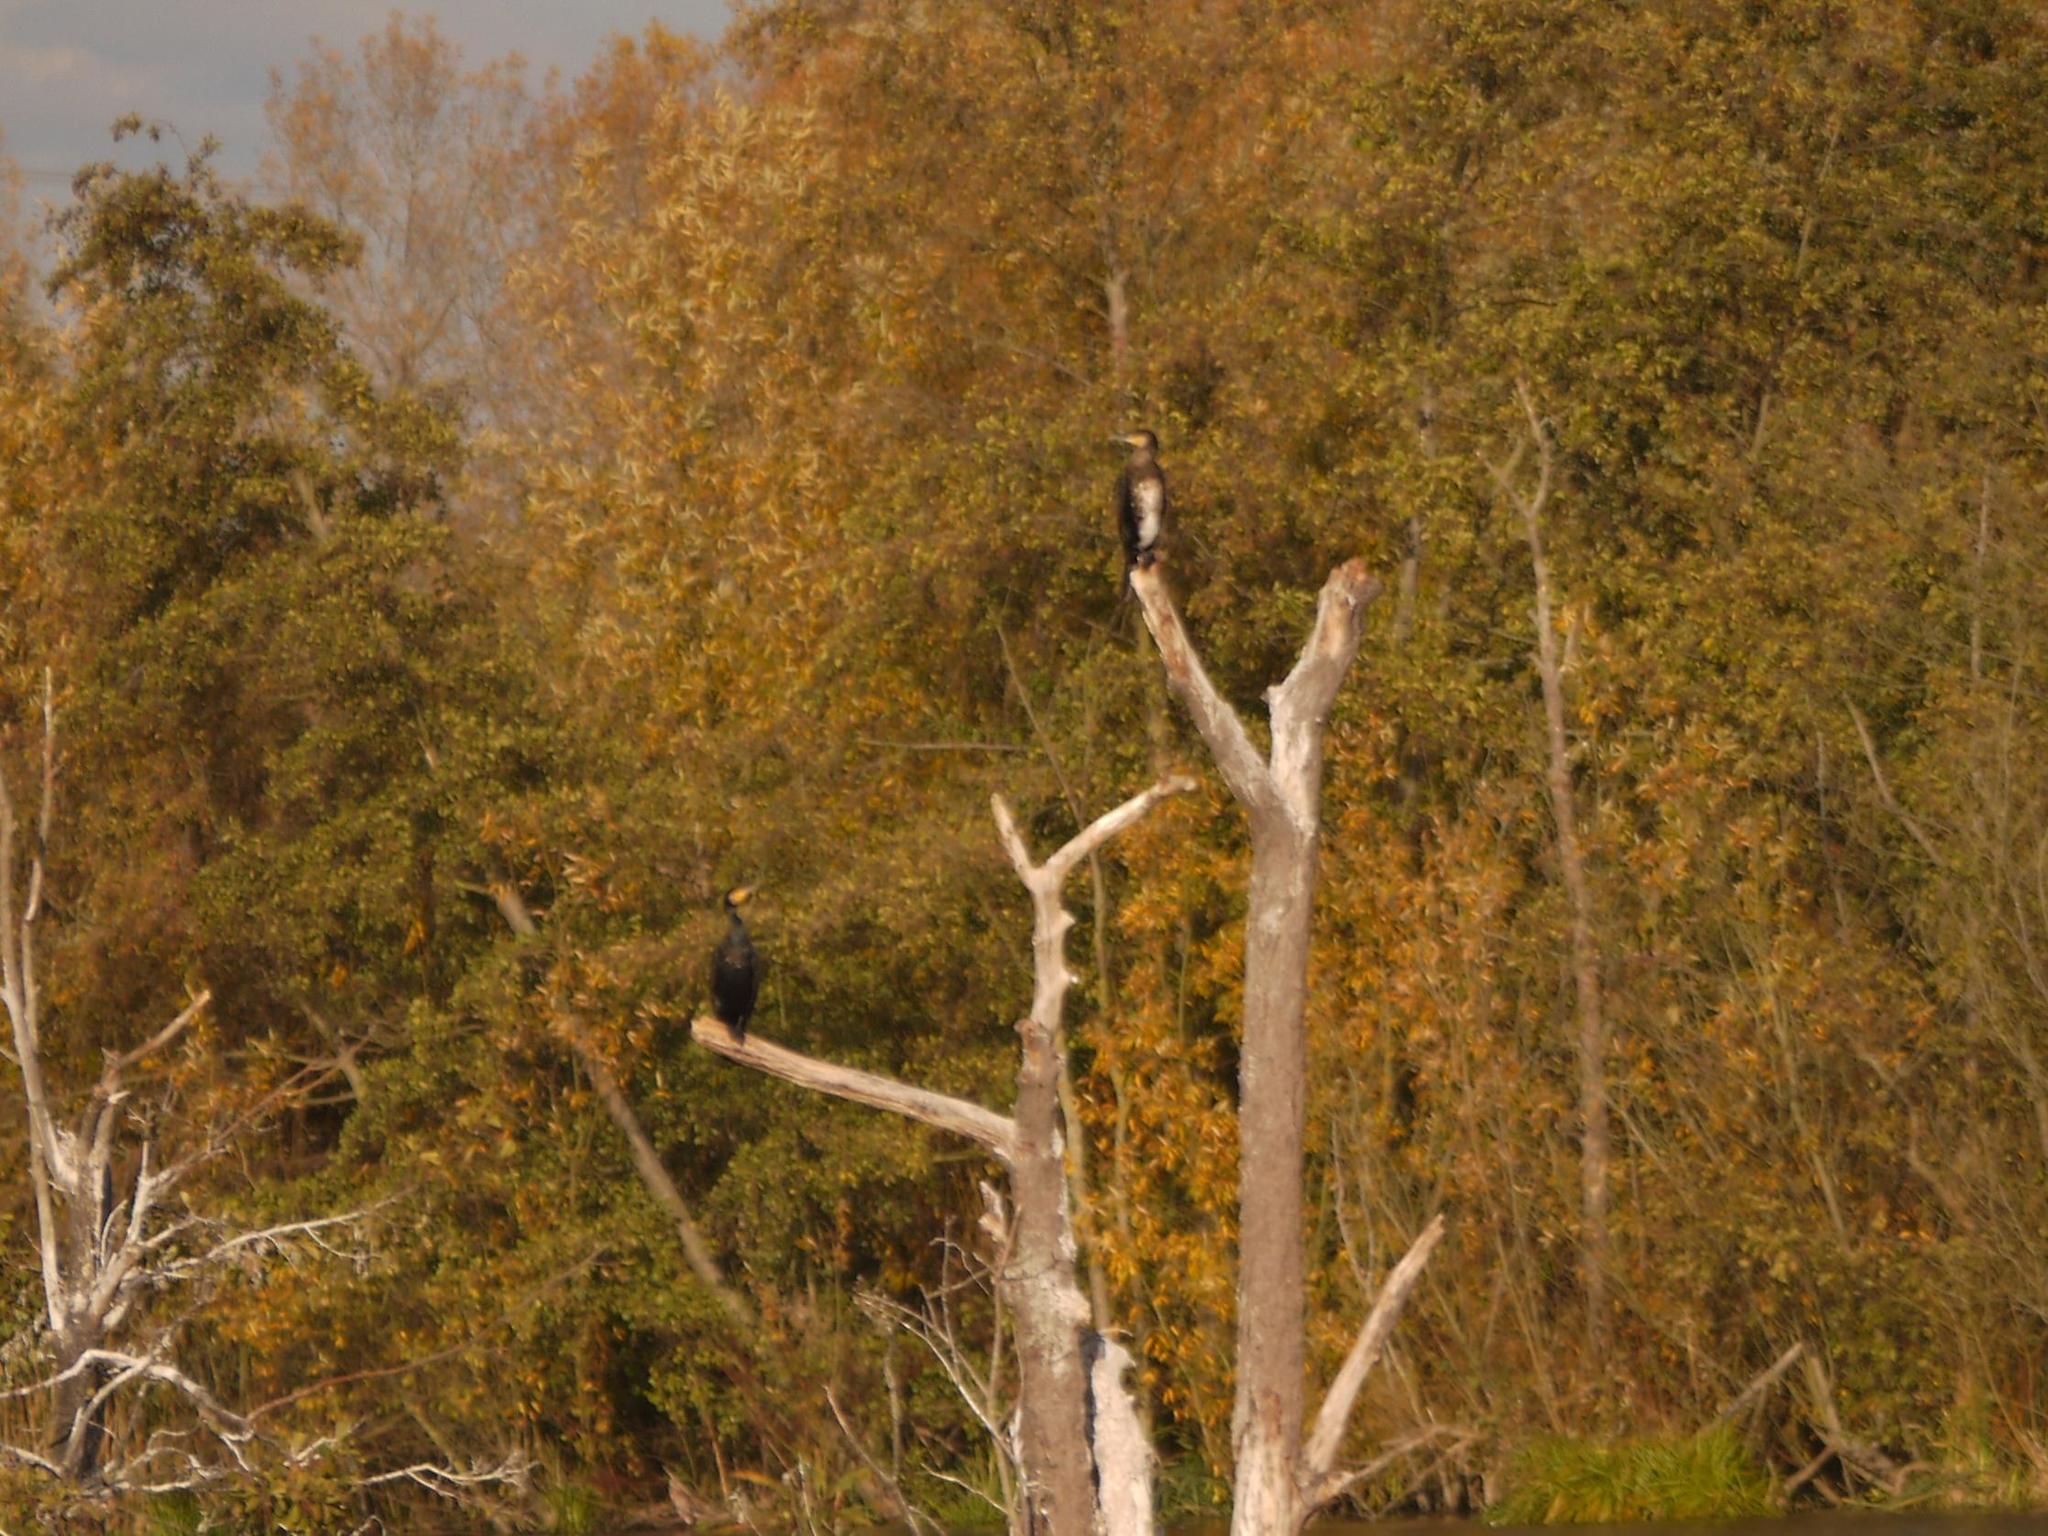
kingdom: Animalia
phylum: Chordata
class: Aves
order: Suliformes
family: Phalacrocoracidae
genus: Phalacrocorax
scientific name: Phalacrocorax carbo
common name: Great cormorant
